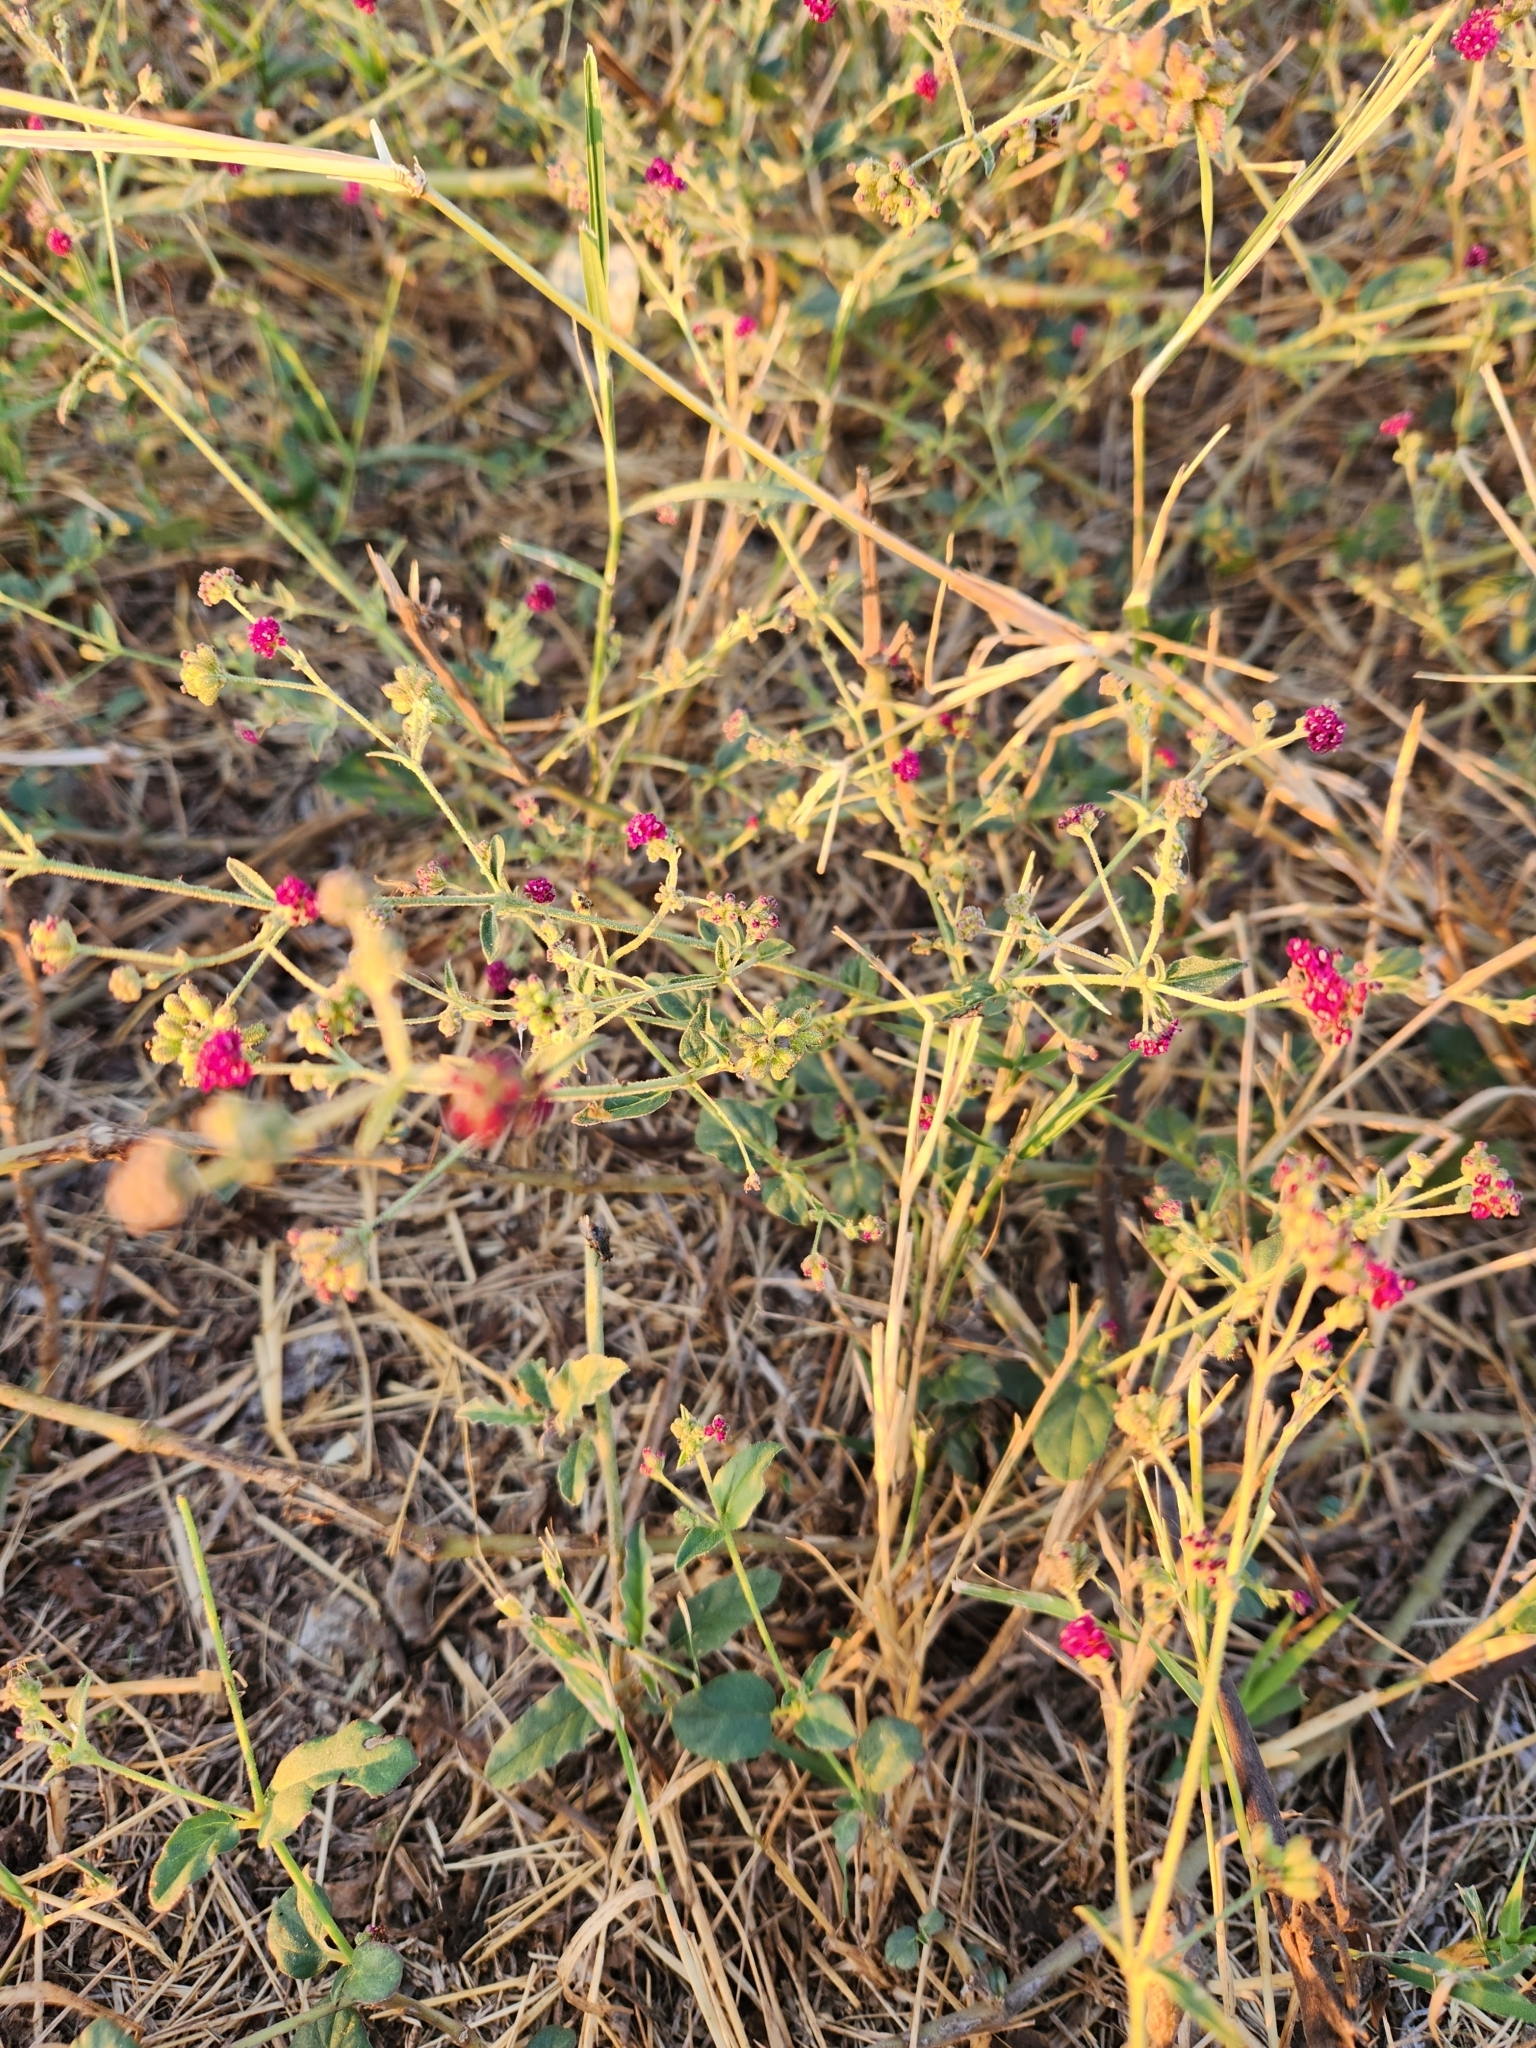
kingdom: Plantae
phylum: Tracheophyta
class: Magnoliopsida
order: Caryophyllales
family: Nyctaginaceae
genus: Boerhavia
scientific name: Boerhavia coccinea
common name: Scarlet spiderling
